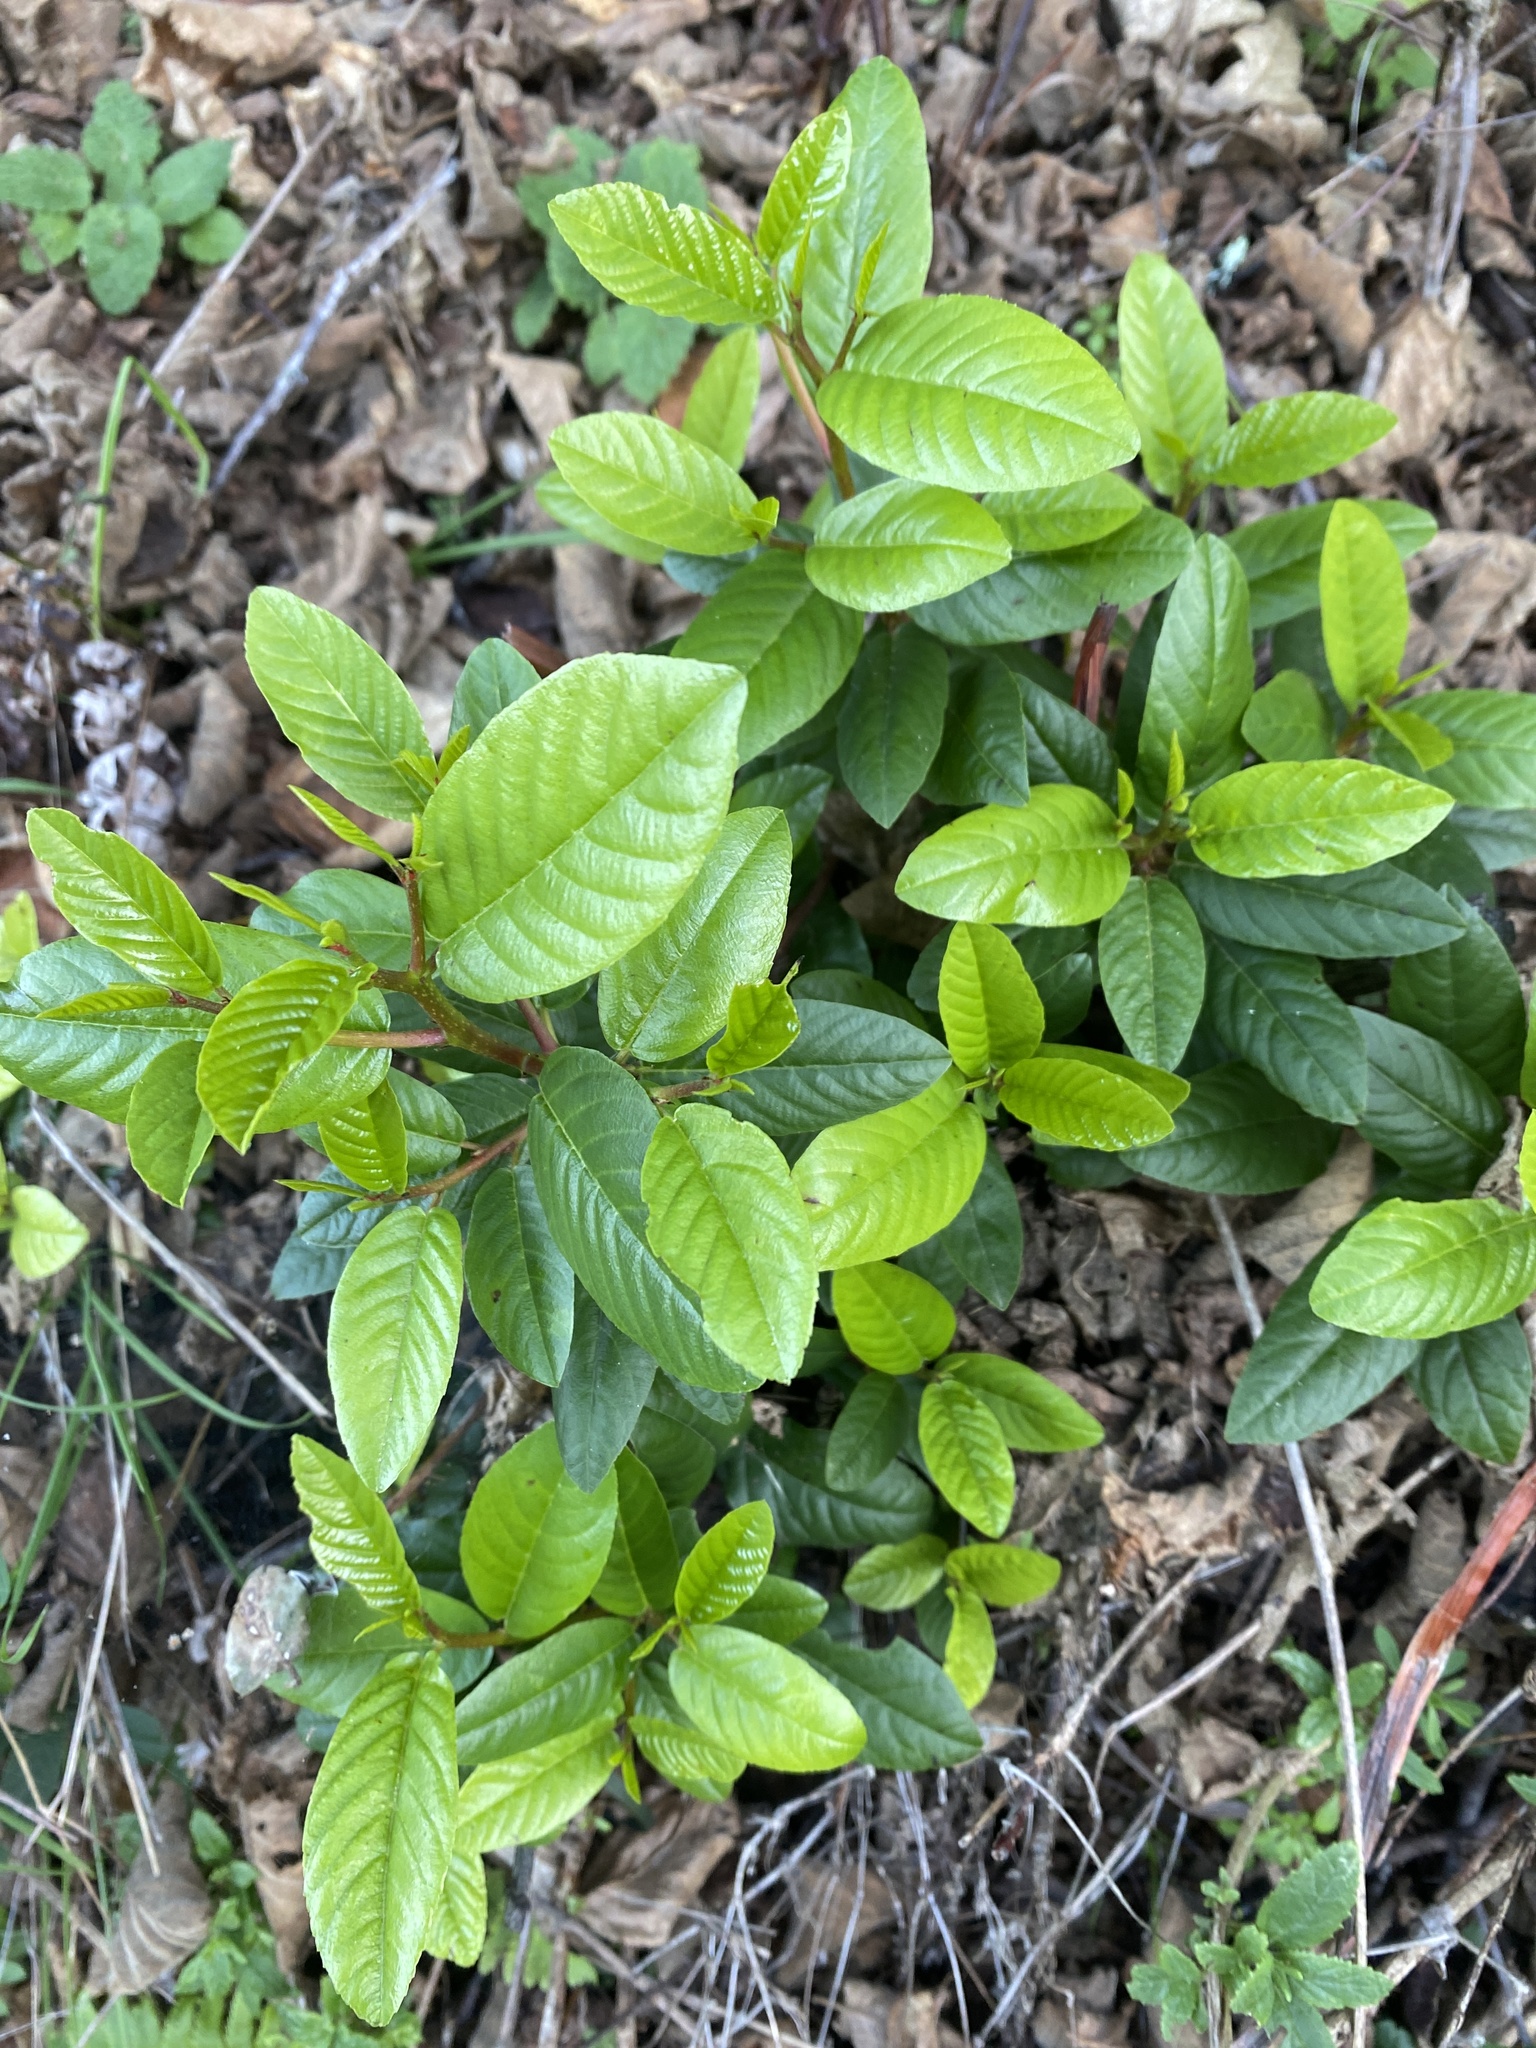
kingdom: Plantae
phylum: Tracheophyta
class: Magnoliopsida
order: Rosales
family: Rhamnaceae
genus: Frangula
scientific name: Frangula californica
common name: California buckthorn
